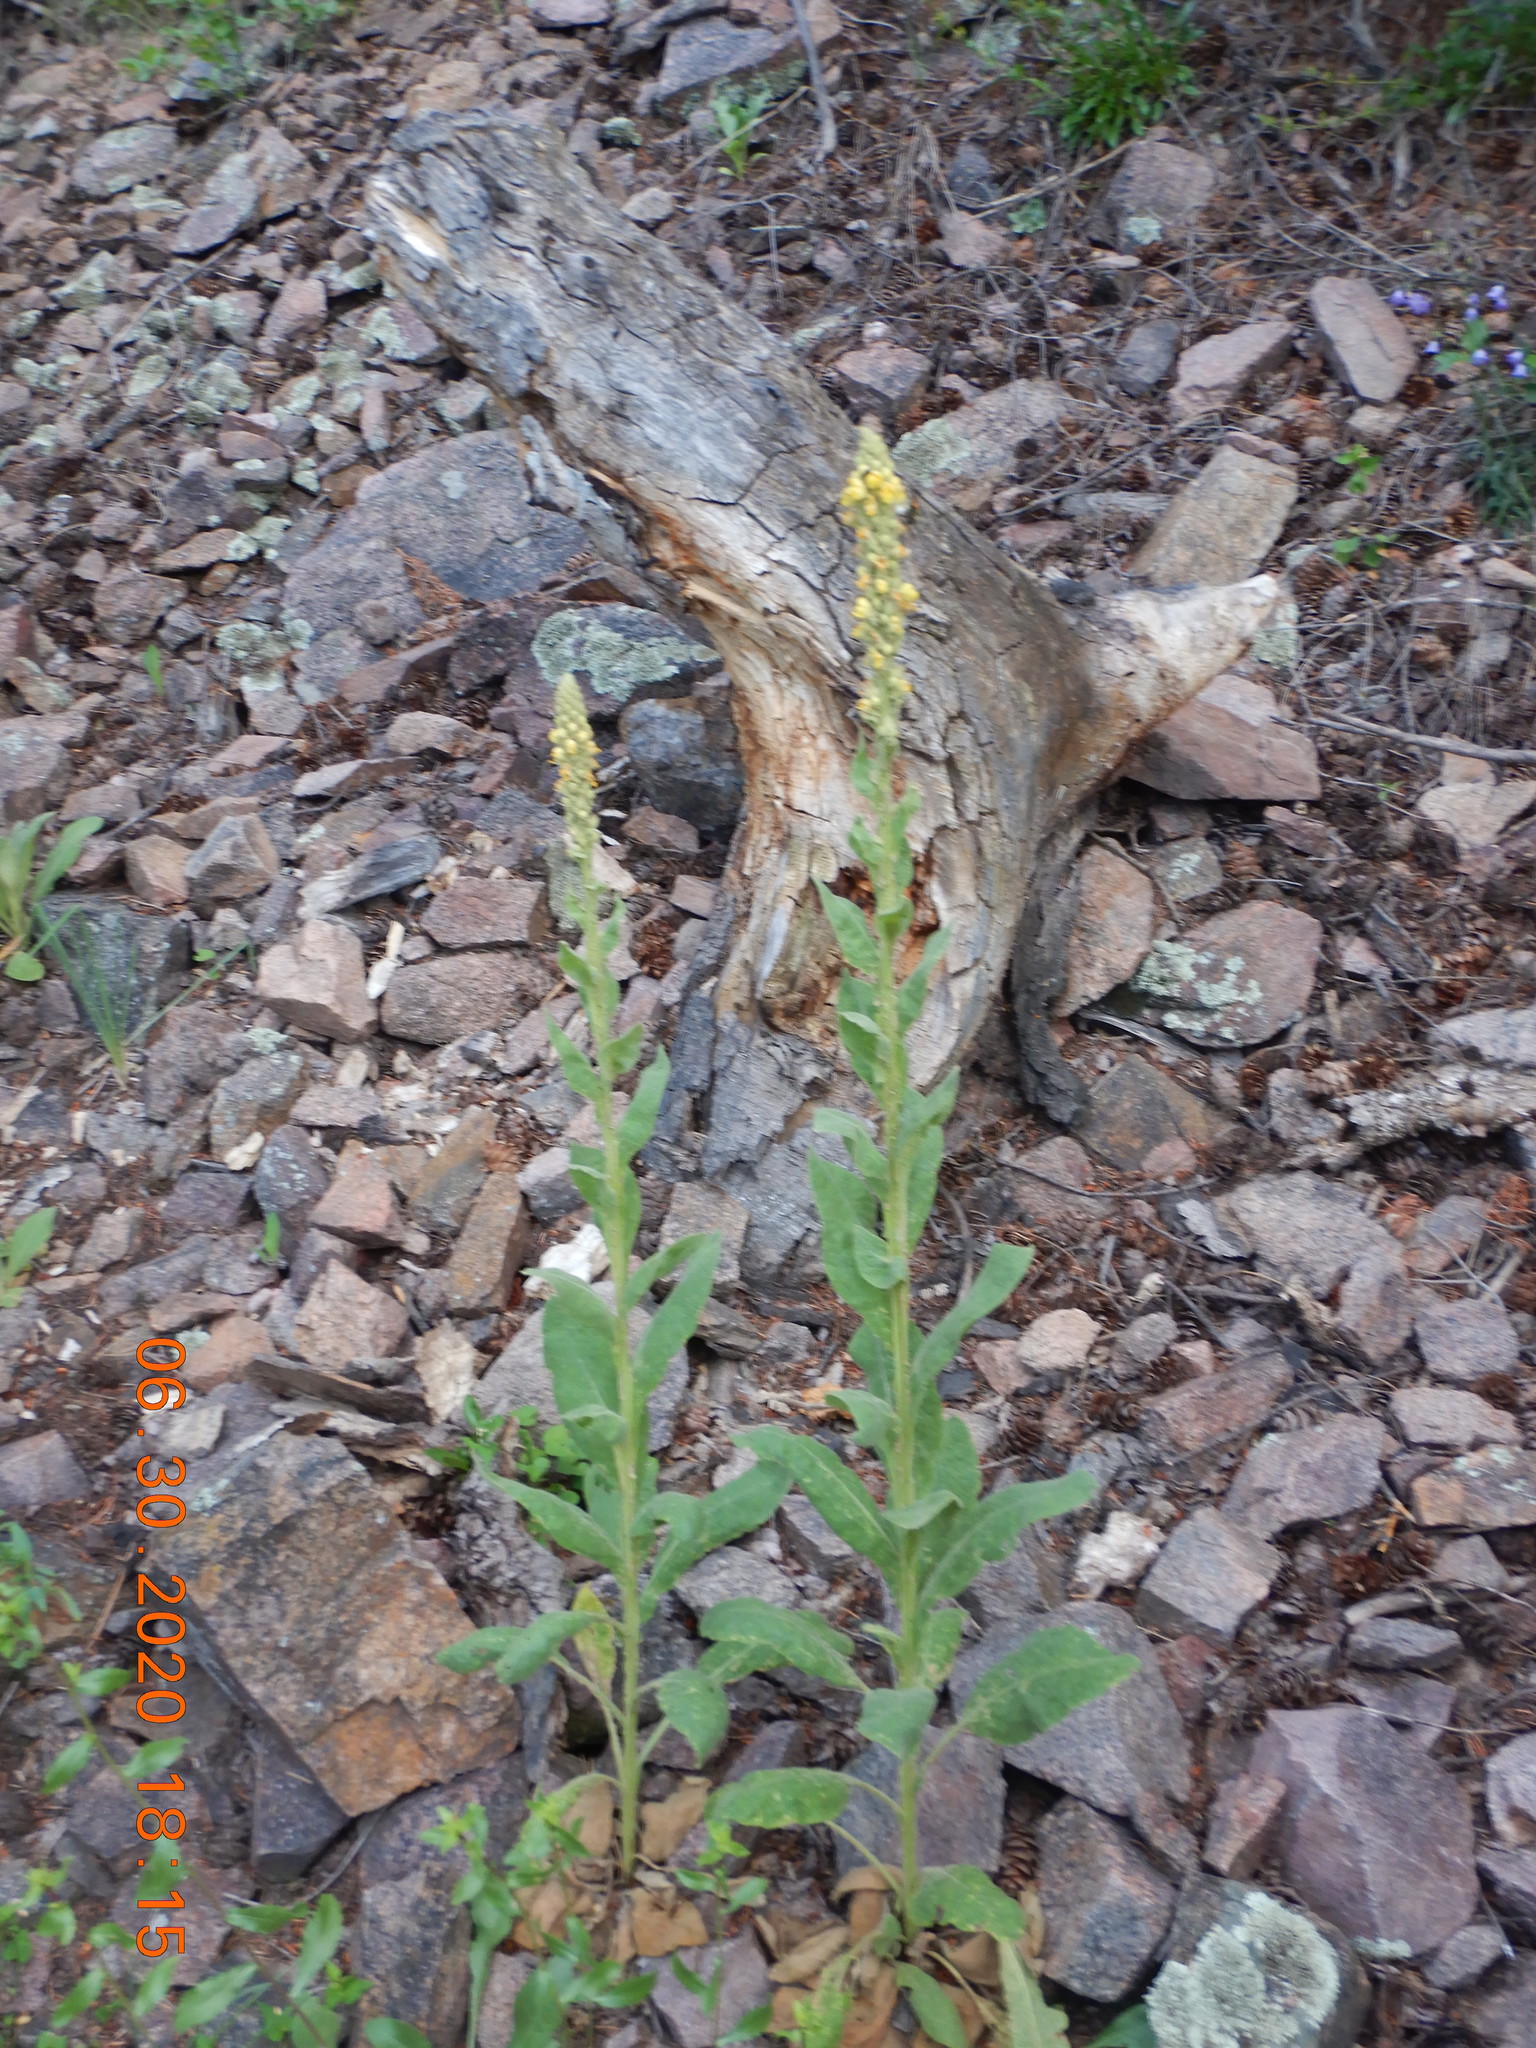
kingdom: Plantae
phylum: Tracheophyta
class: Magnoliopsida
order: Lamiales
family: Scrophulariaceae
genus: Verbascum
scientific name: Verbascum thapsus
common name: Common mullein
